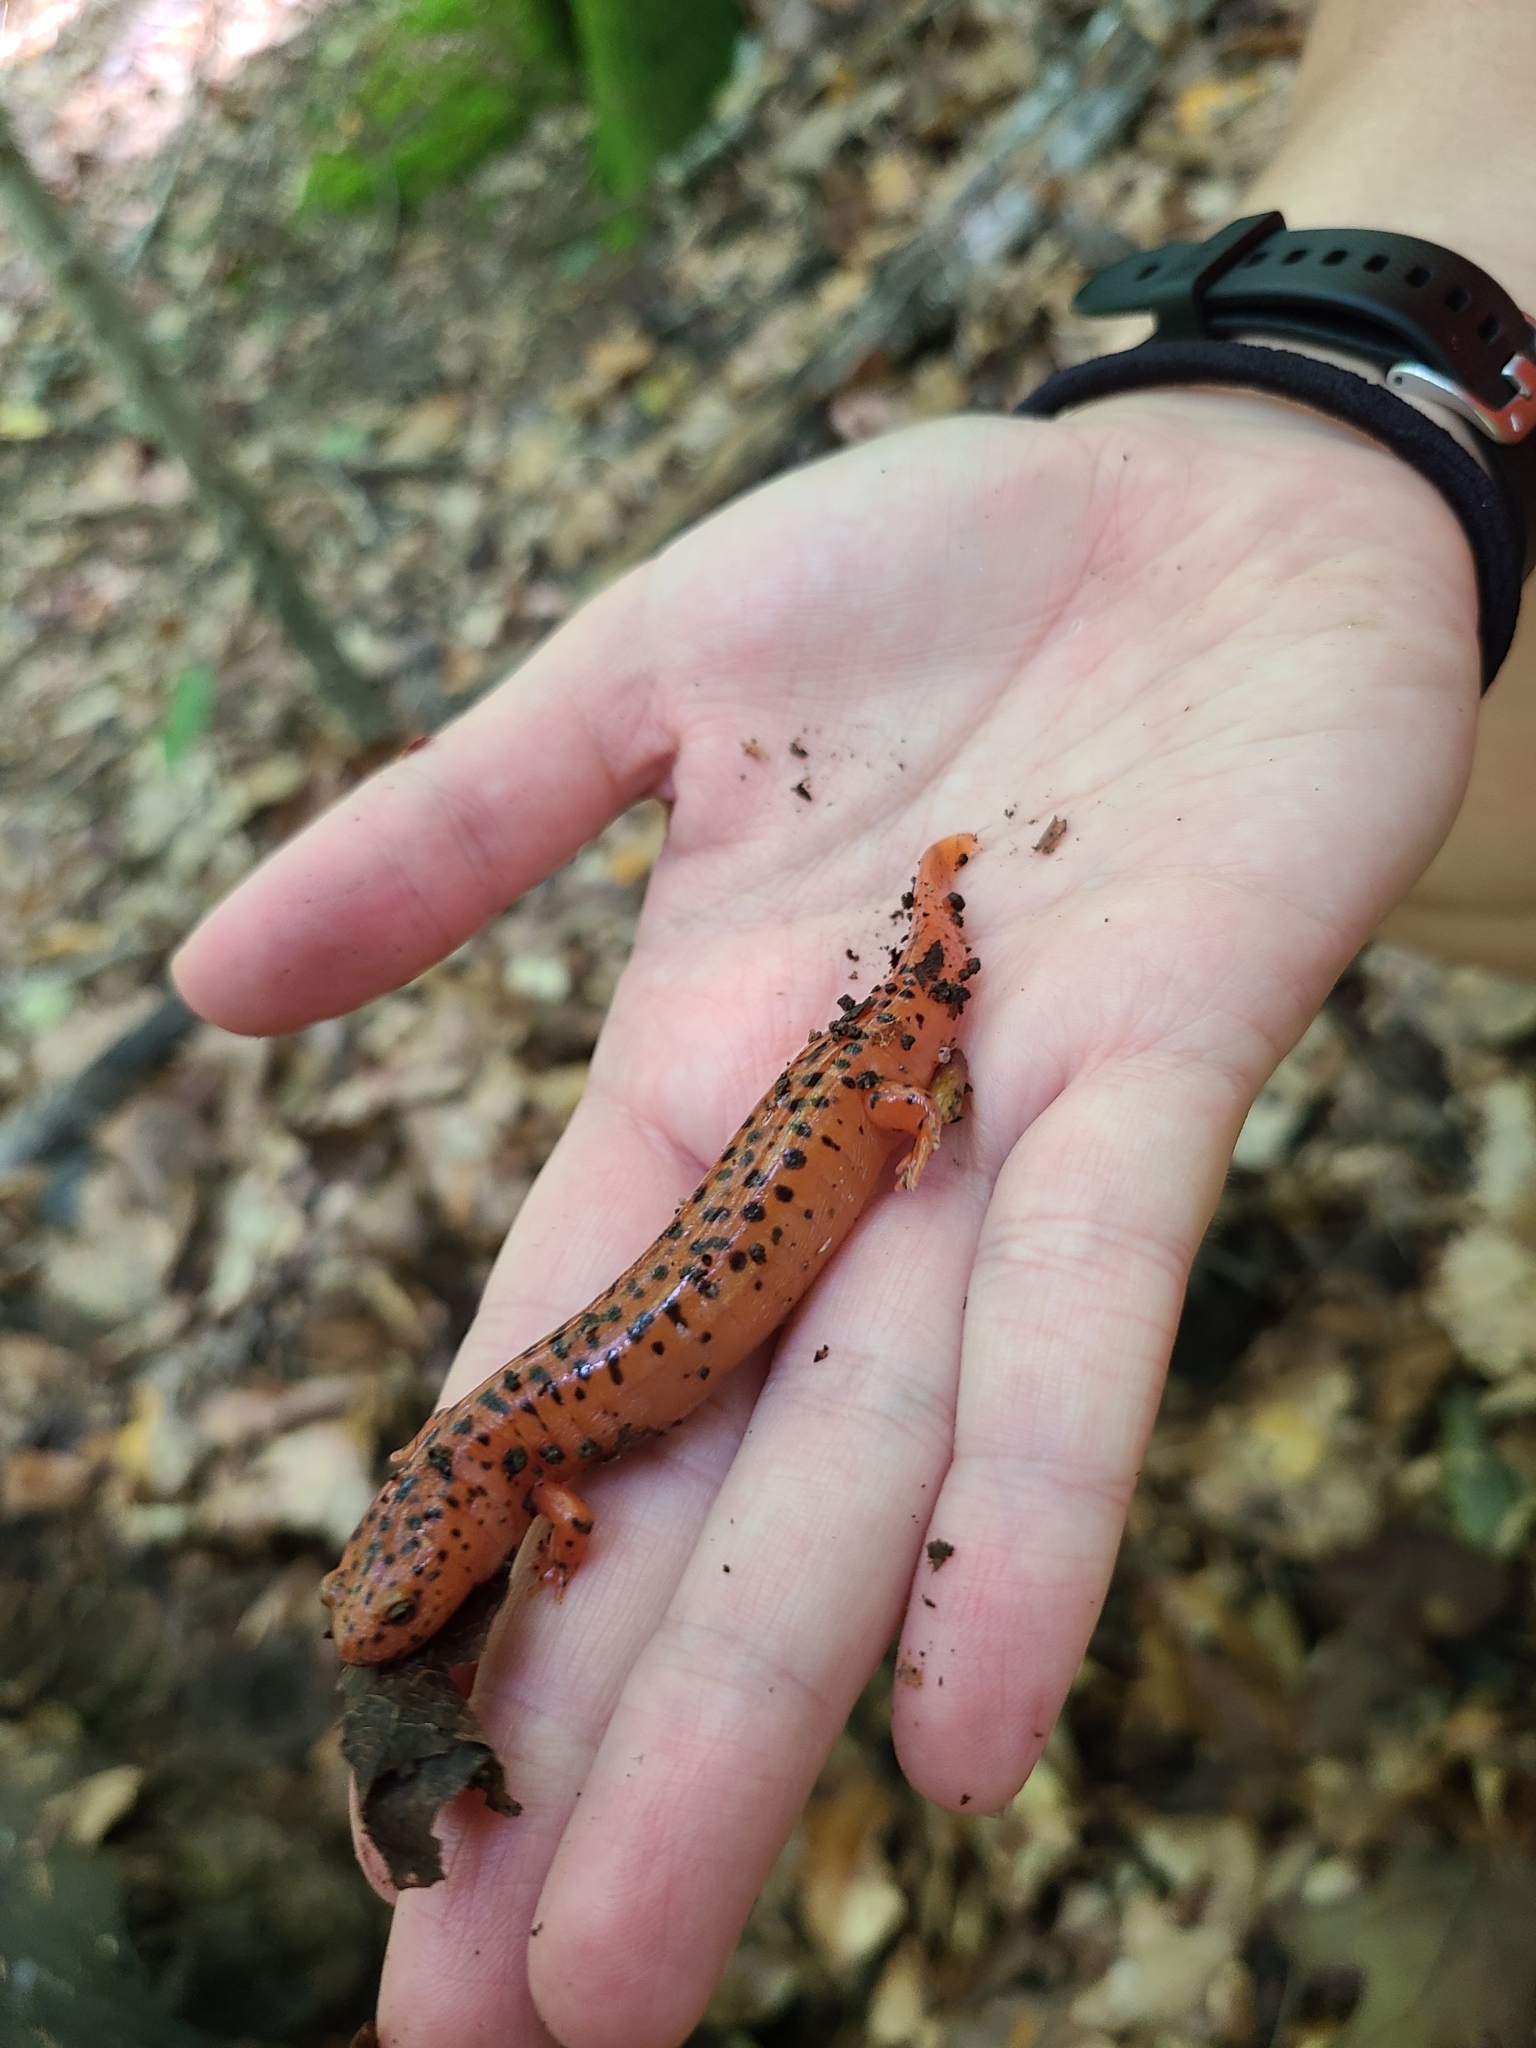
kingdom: Animalia
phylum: Chordata
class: Amphibia
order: Caudata
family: Plethodontidae
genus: Pseudotriton
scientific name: Pseudotriton ruber
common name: Red salamander
